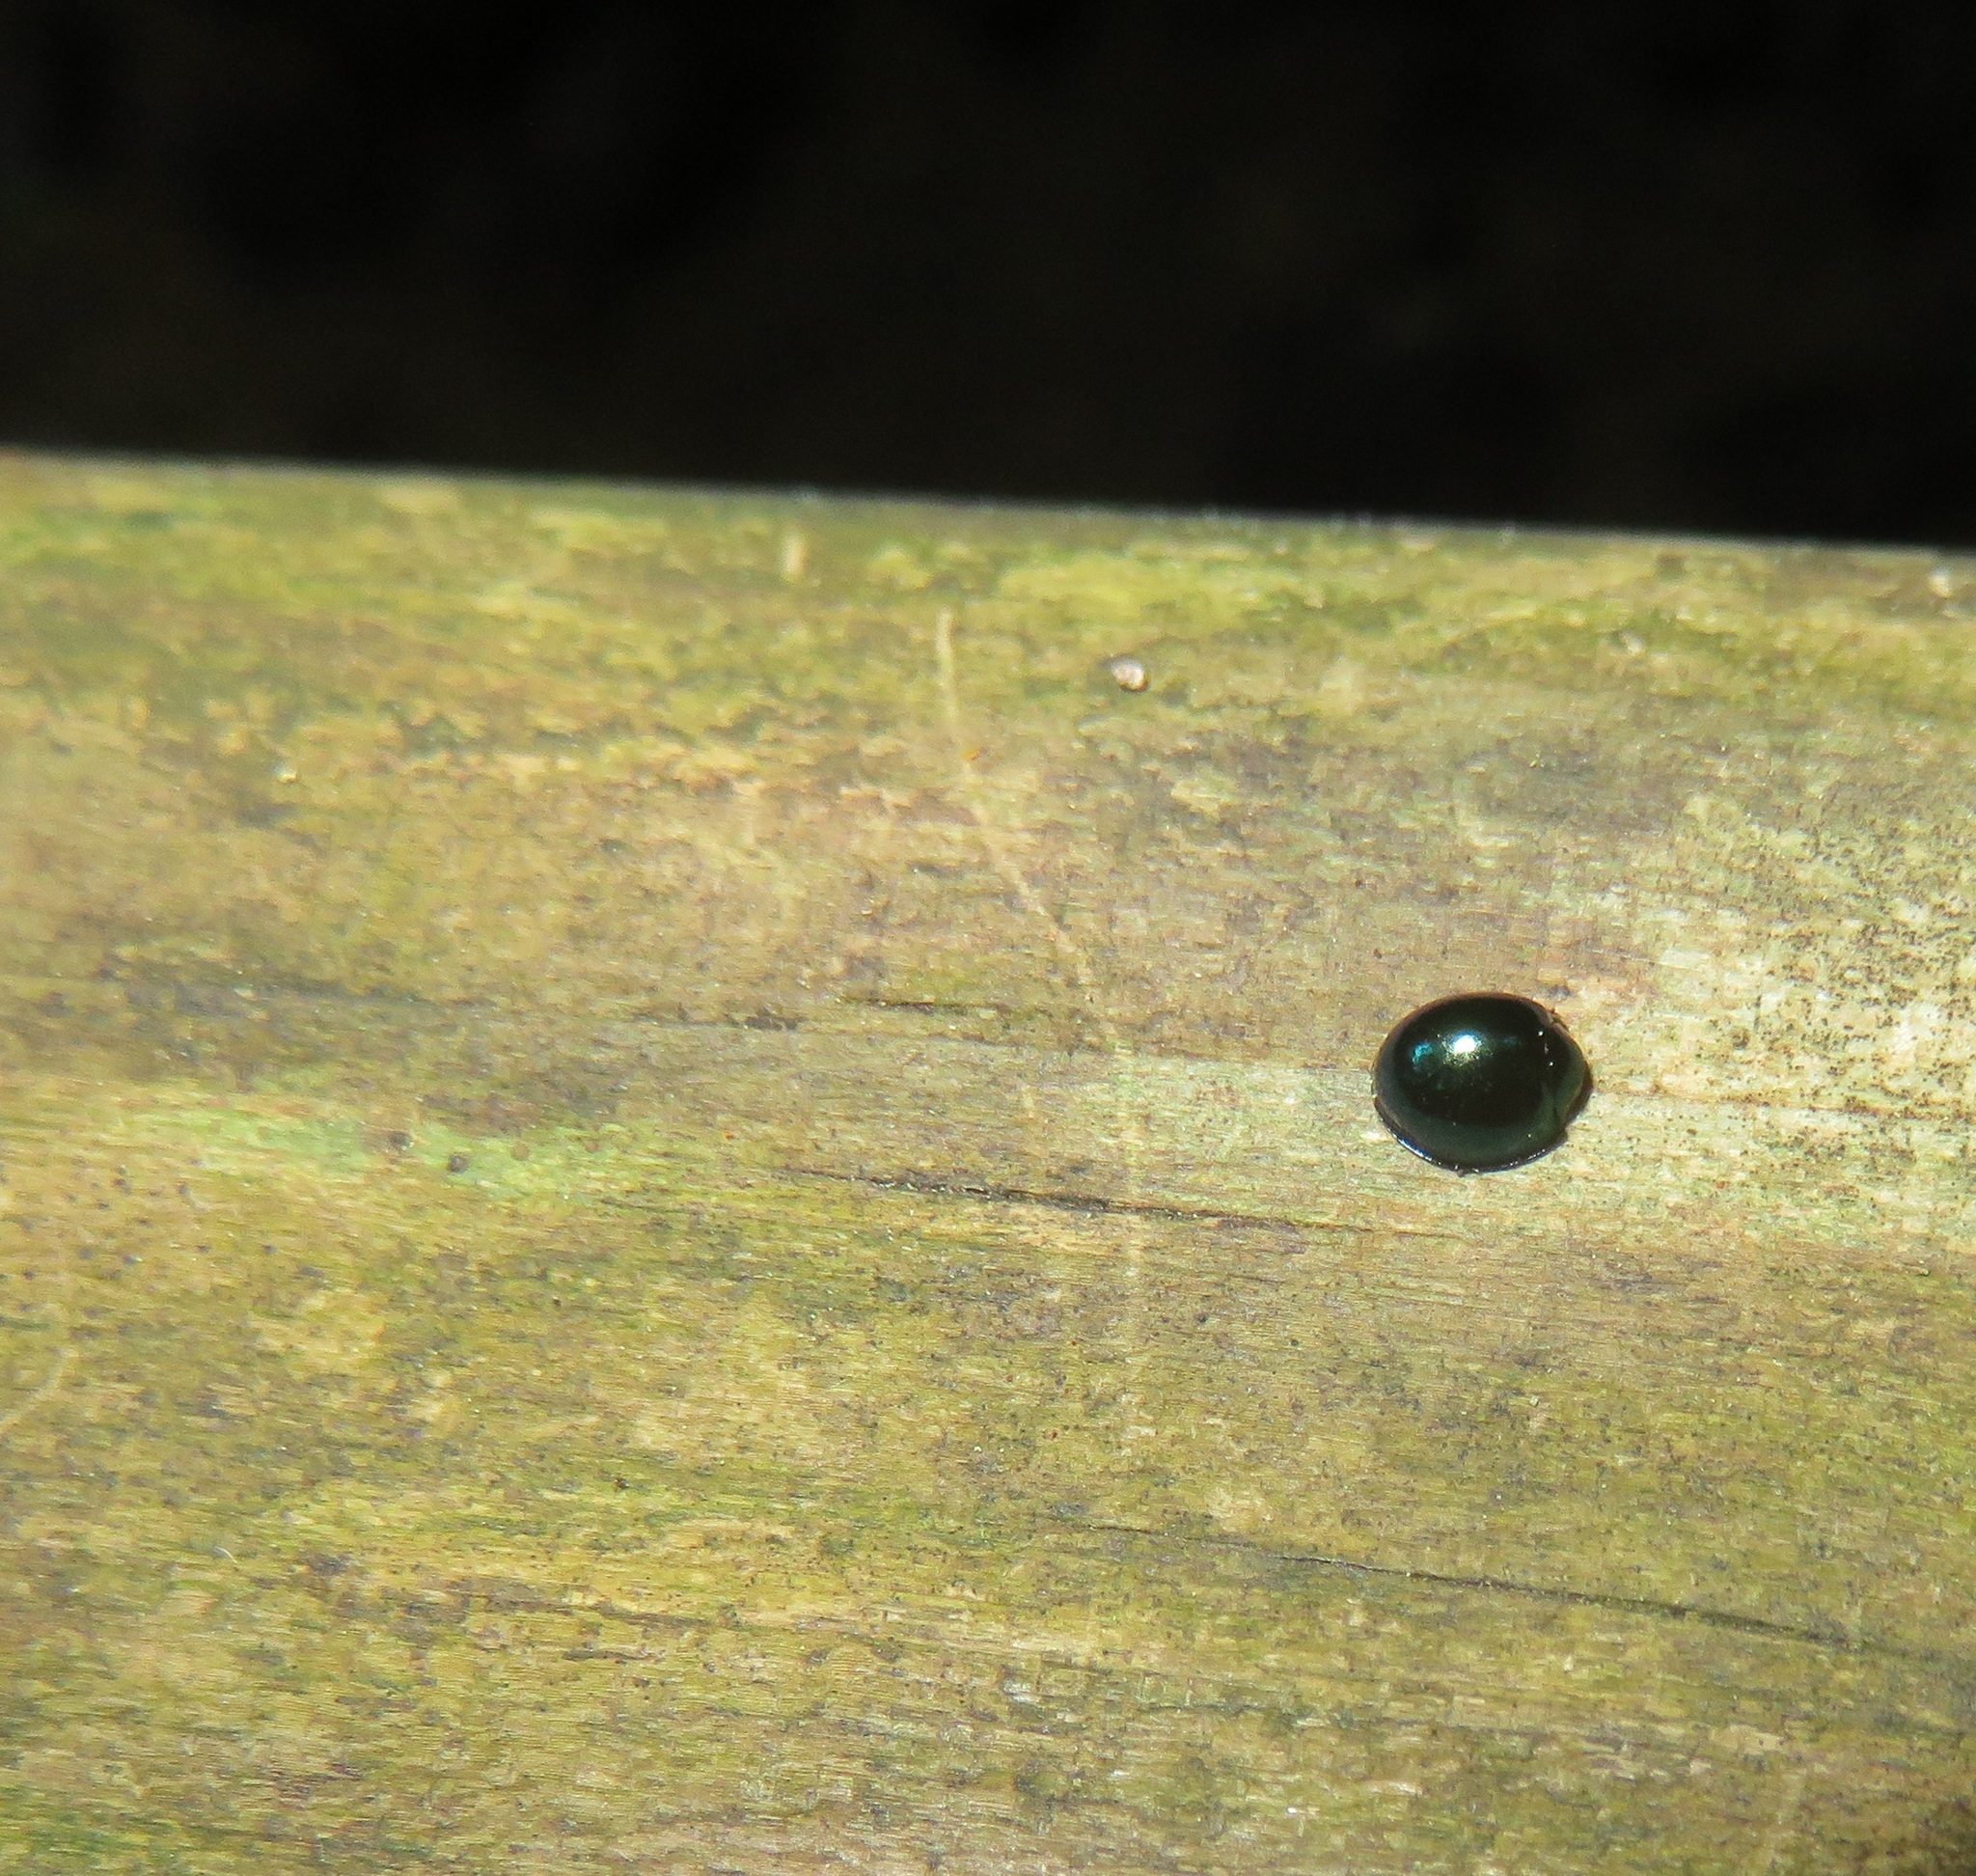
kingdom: Animalia
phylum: Arthropoda
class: Insecta
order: Coleoptera
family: Coccinellidae
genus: Halmus
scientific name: Halmus chalybeus
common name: Steel blue ladybird beetle
